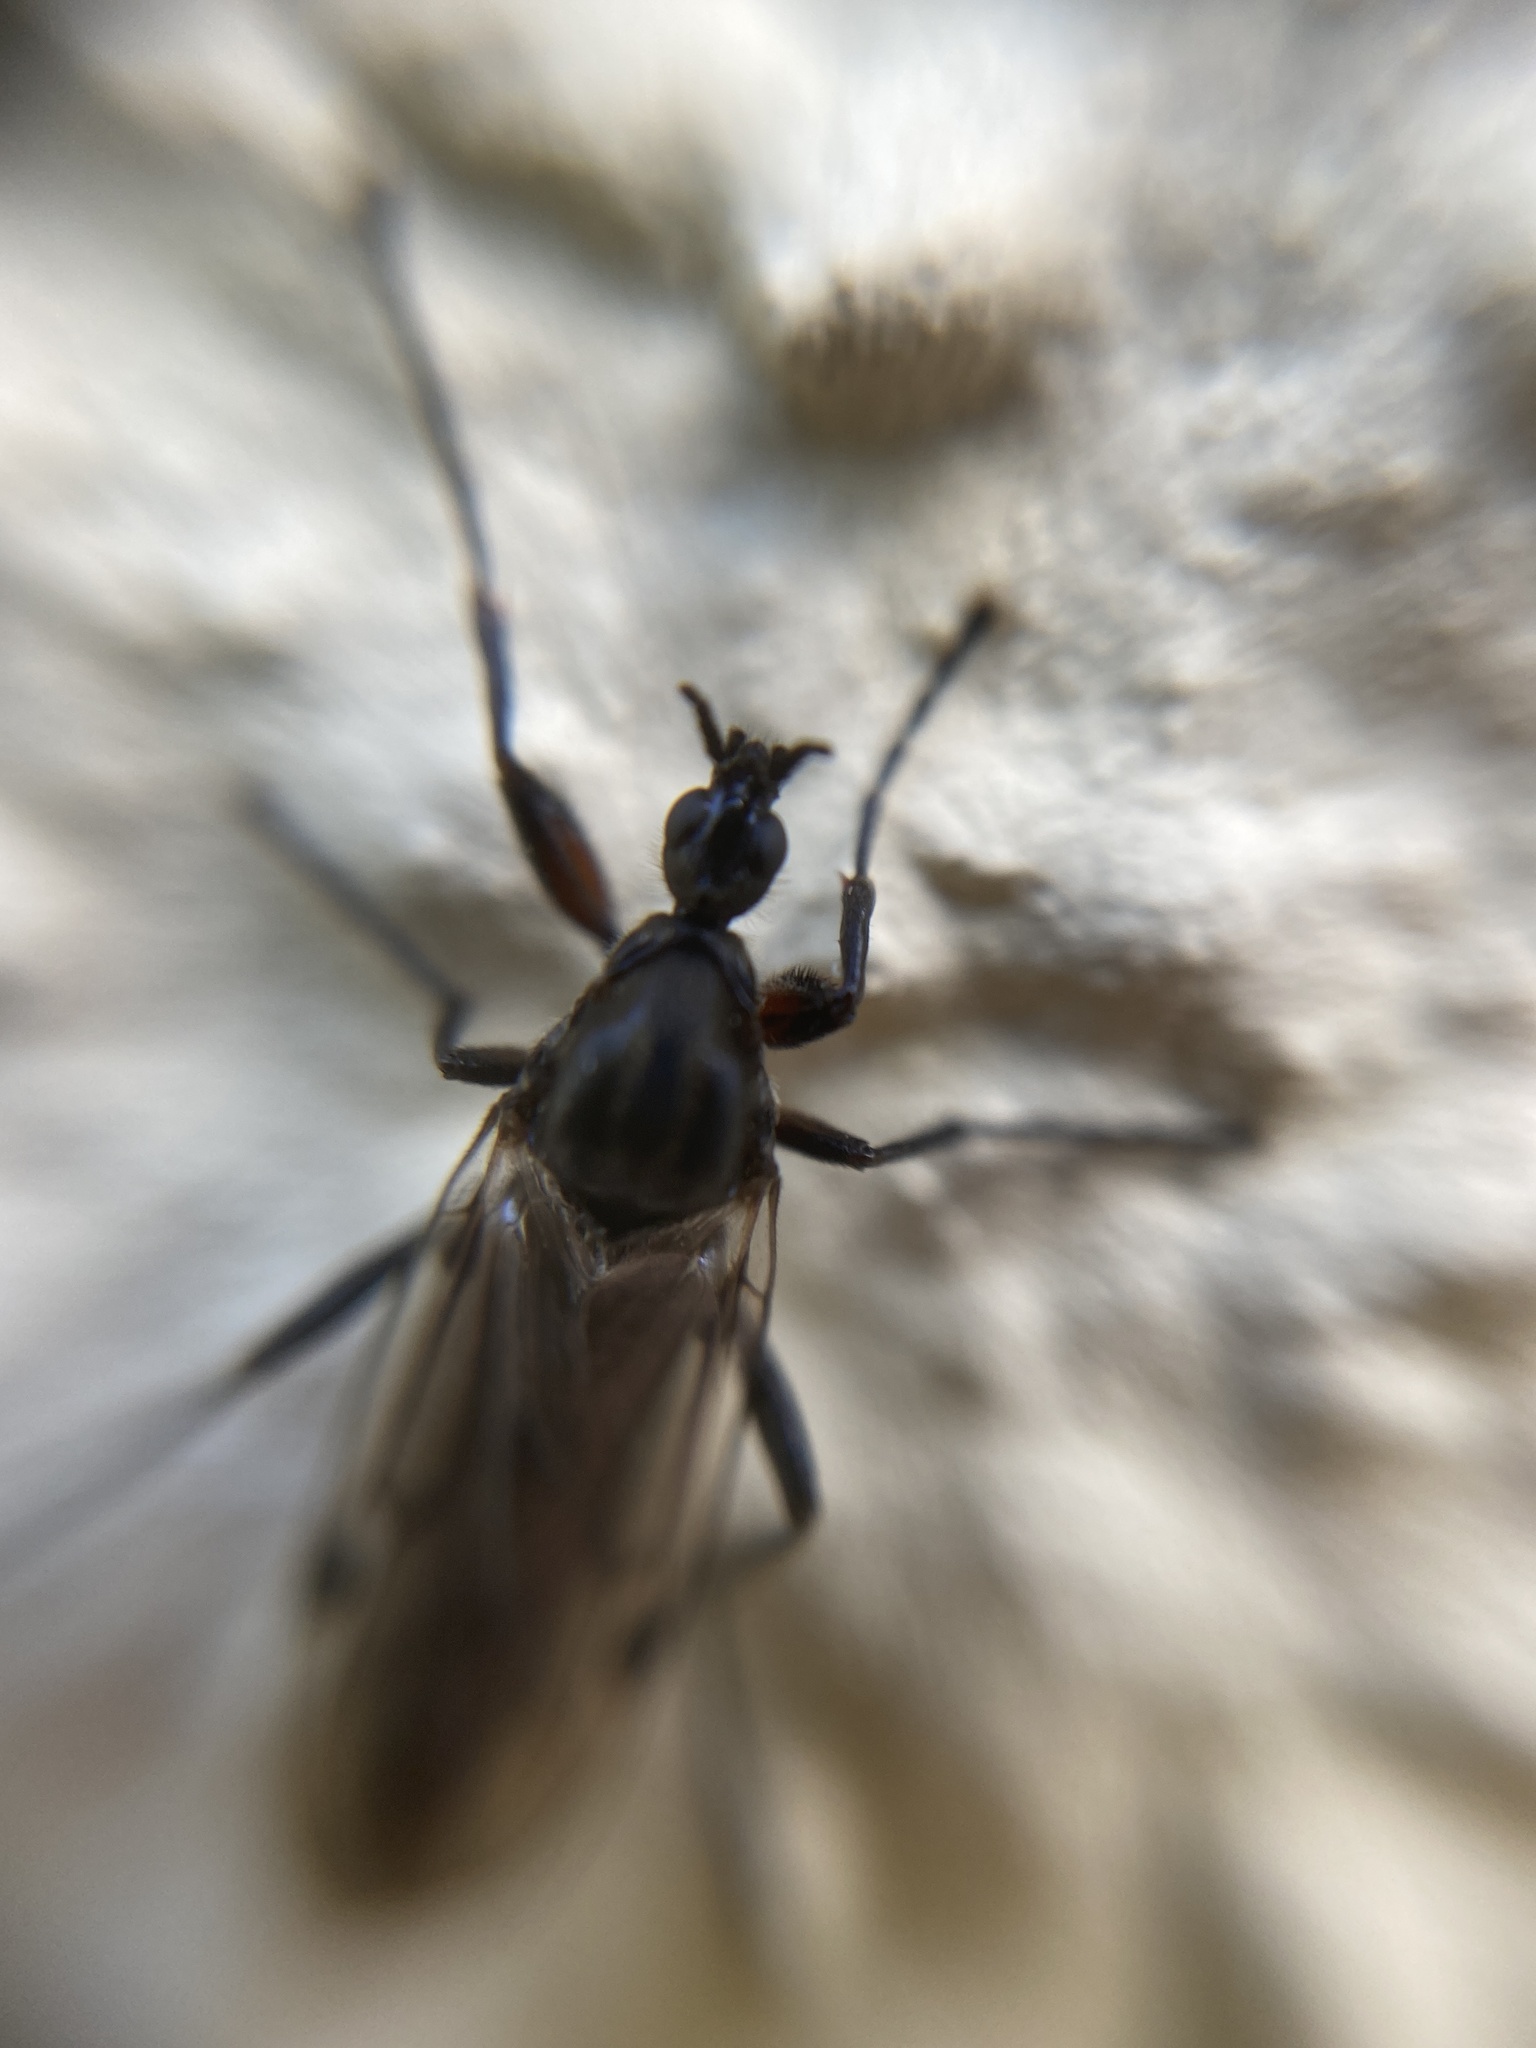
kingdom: Animalia
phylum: Arthropoda
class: Insecta
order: Diptera
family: Bibionidae
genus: Bibio
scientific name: Bibio venosus
